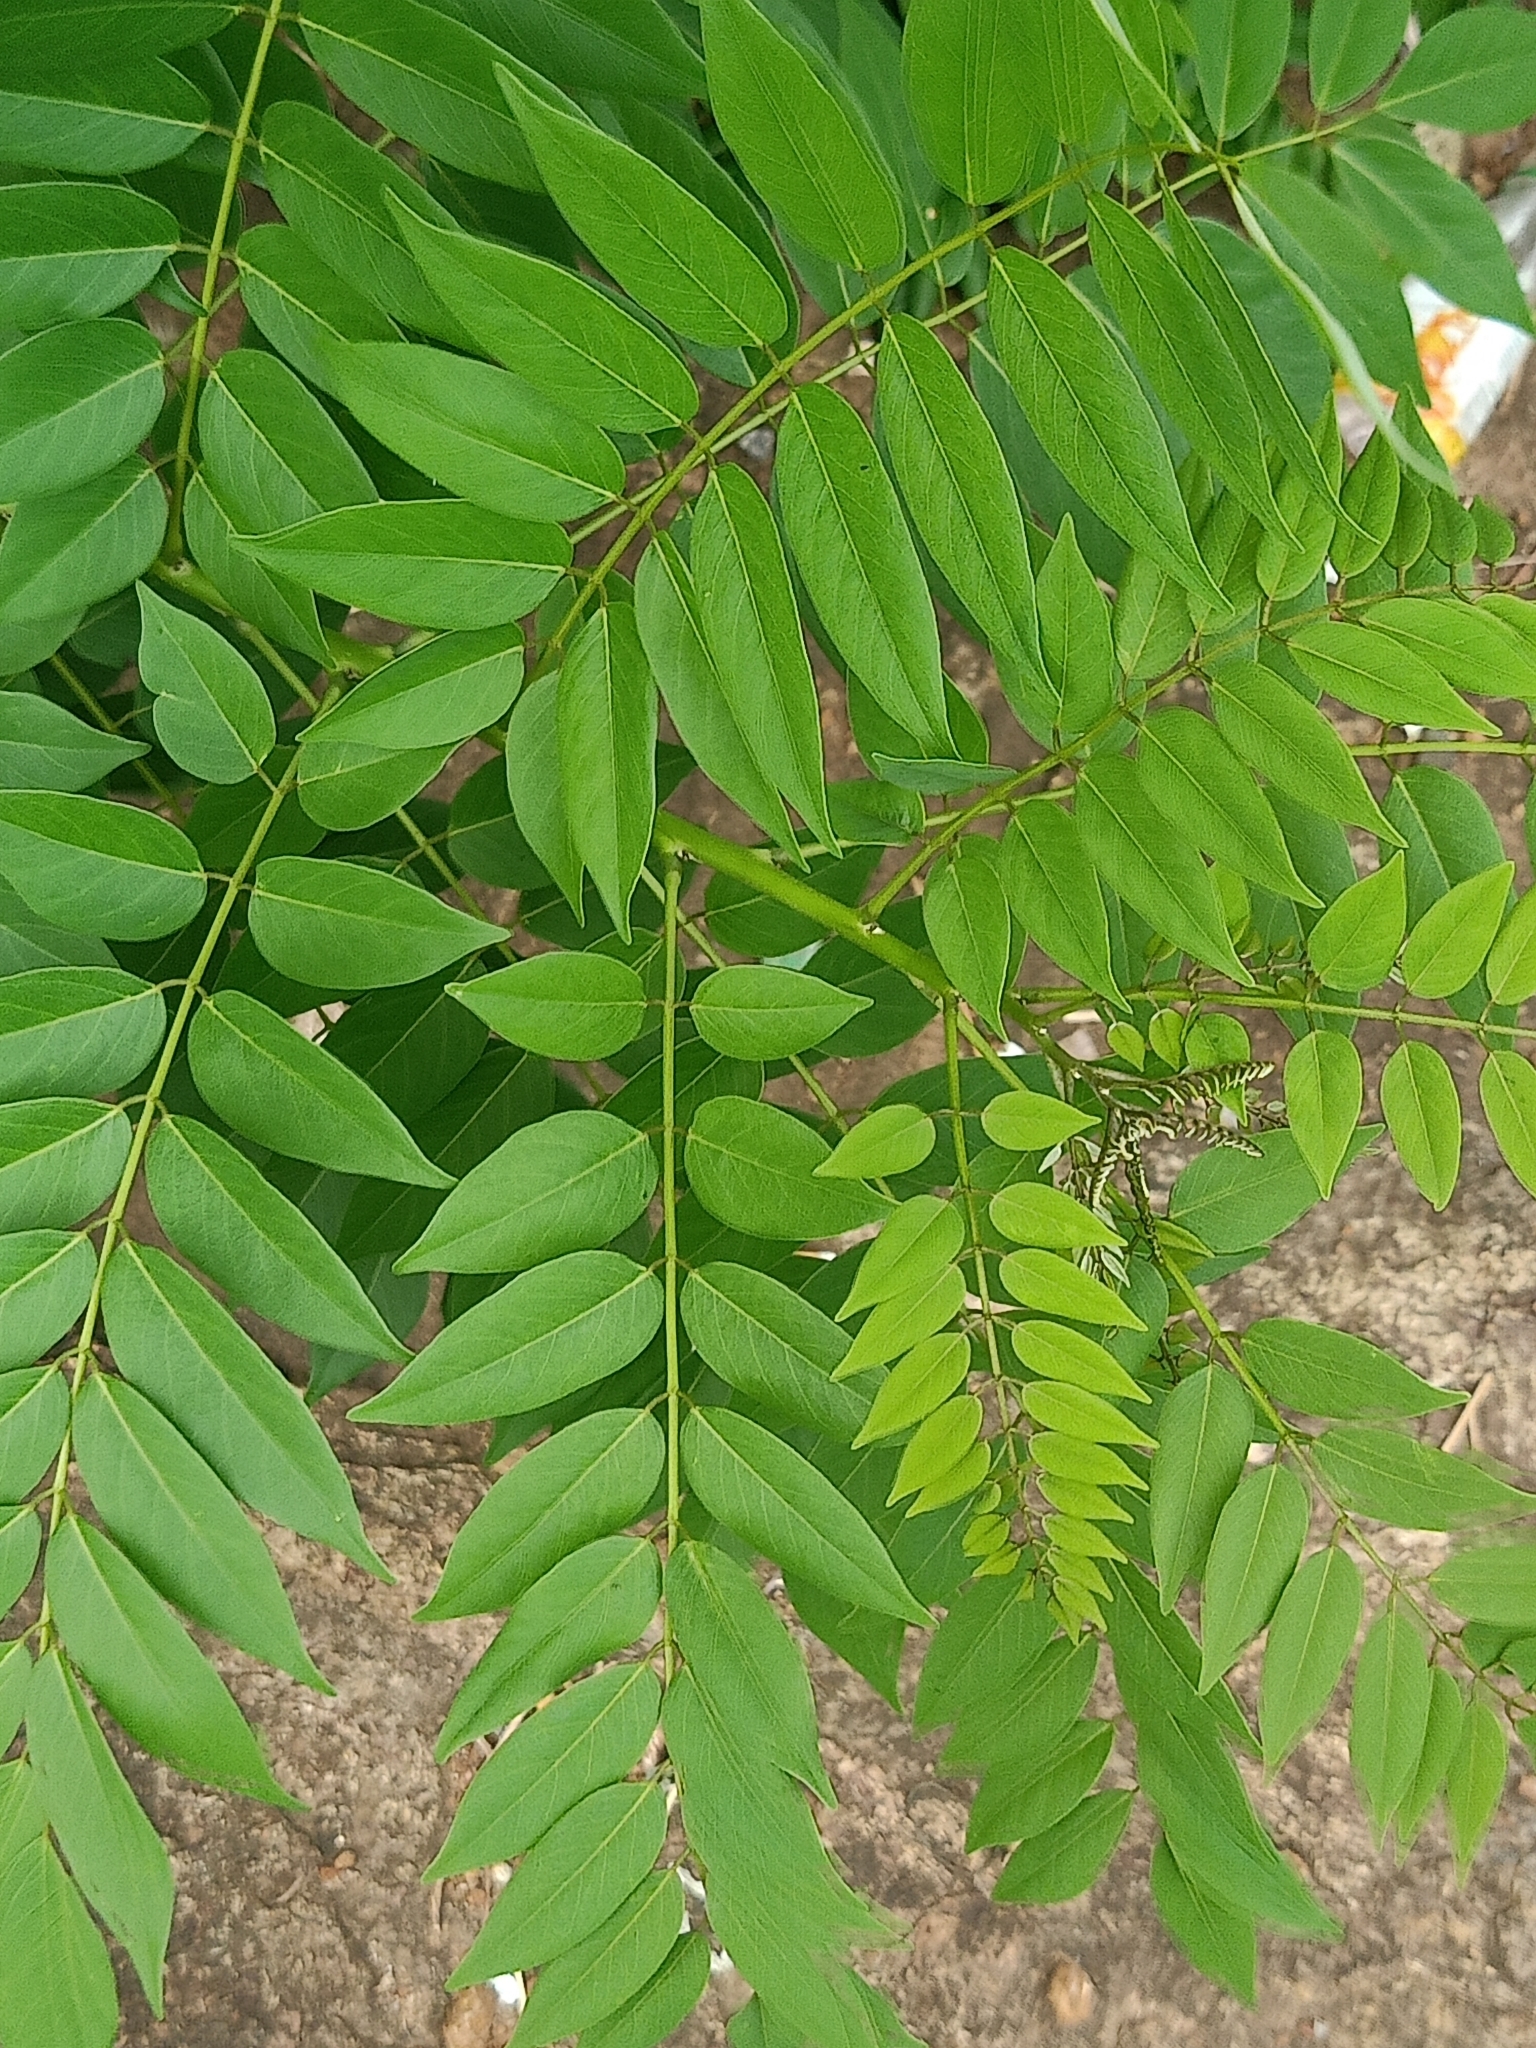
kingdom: Plantae
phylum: Tracheophyta
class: Magnoliopsida
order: Fabales
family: Fabaceae
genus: Gliricidia
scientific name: Gliricidia sepium
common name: Quickstick
